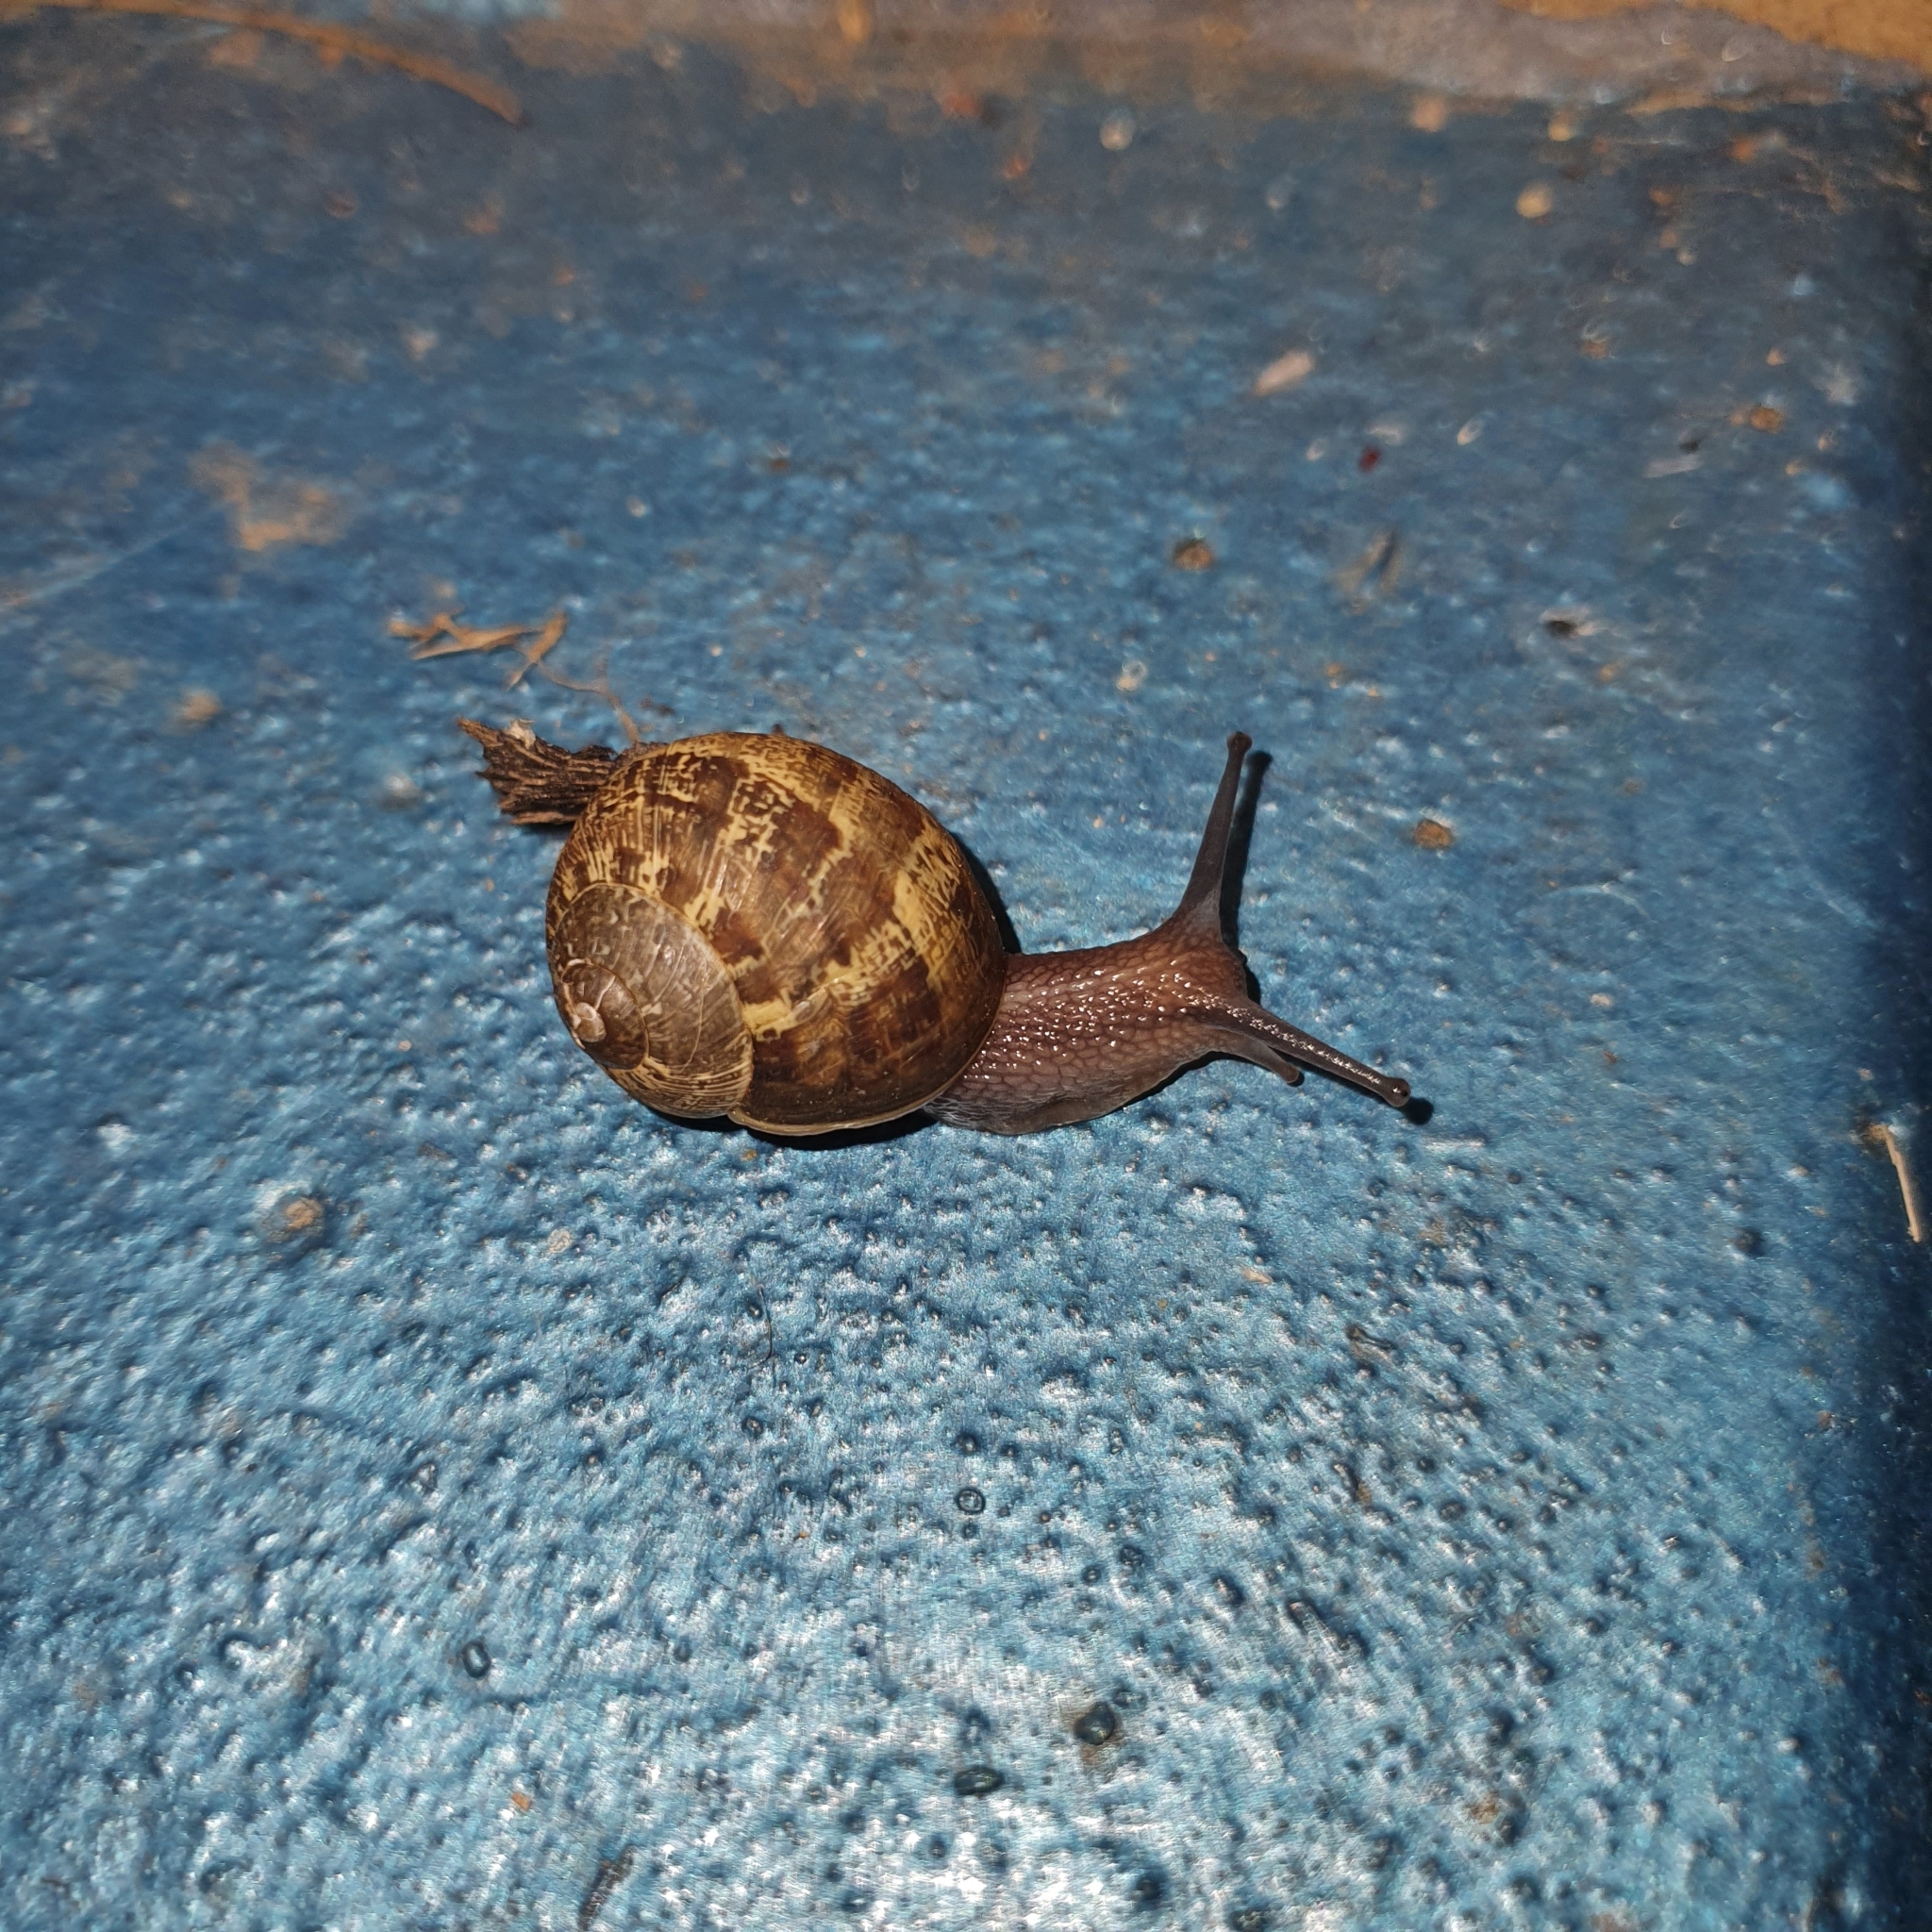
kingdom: Animalia
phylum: Mollusca
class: Gastropoda
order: Stylommatophora
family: Helicidae
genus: Cornu
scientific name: Cornu aspersum
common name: Brown garden snail
